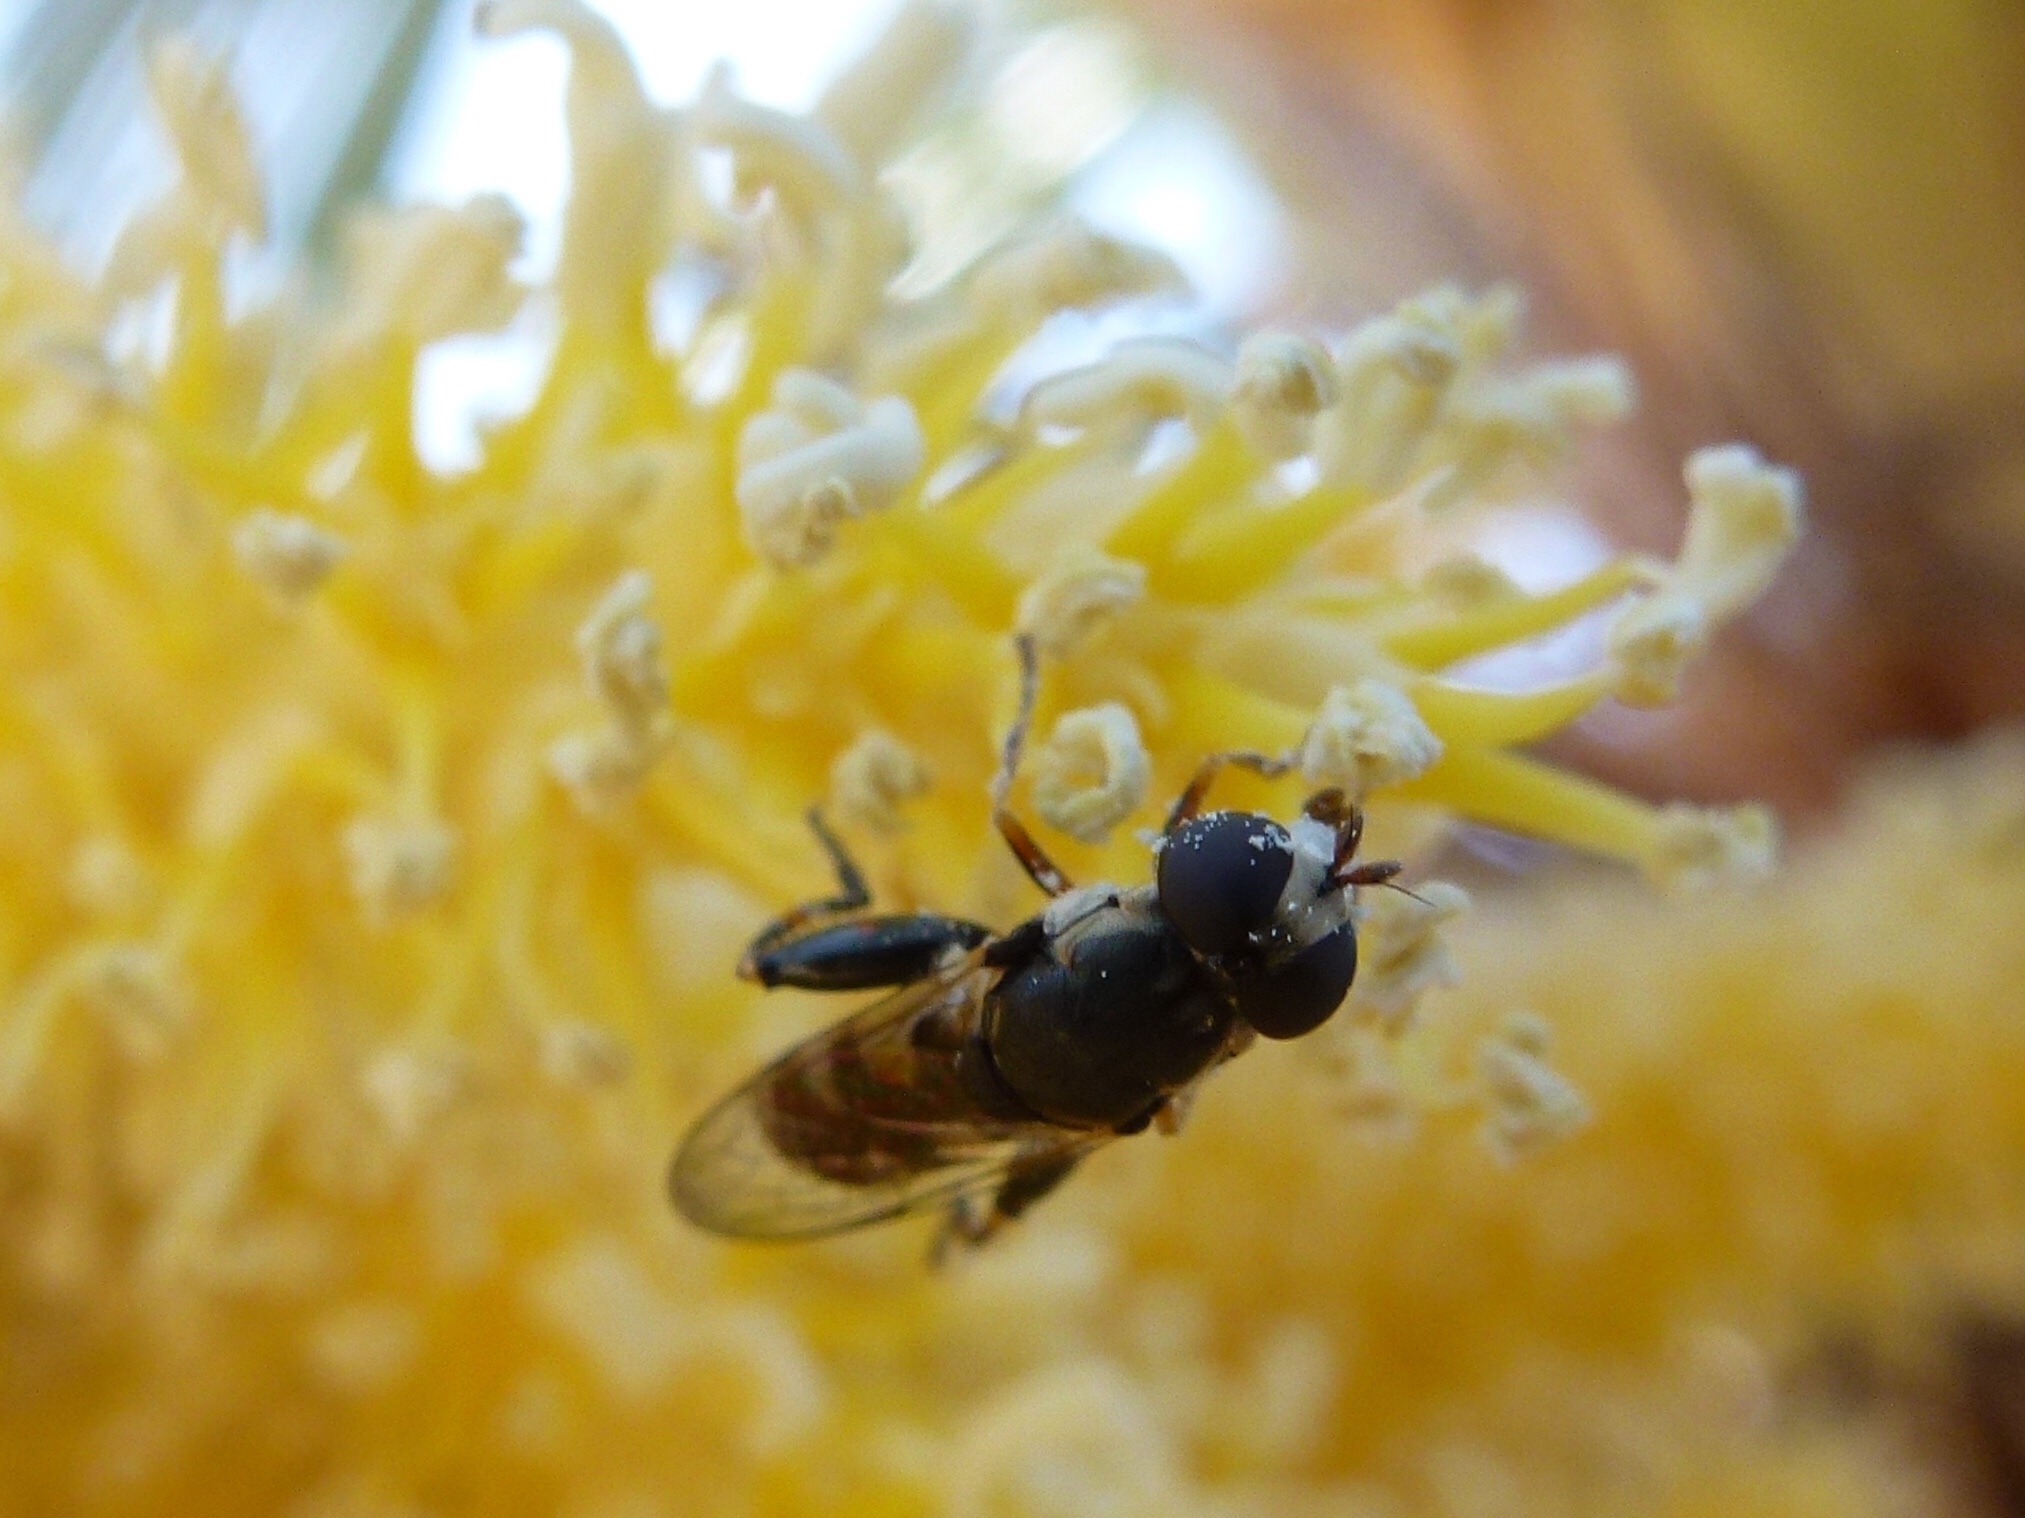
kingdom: Animalia
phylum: Arthropoda
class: Insecta
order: Diptera
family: Syrphidae
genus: Syritta
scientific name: Syritta pipiens
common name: Hover fly
